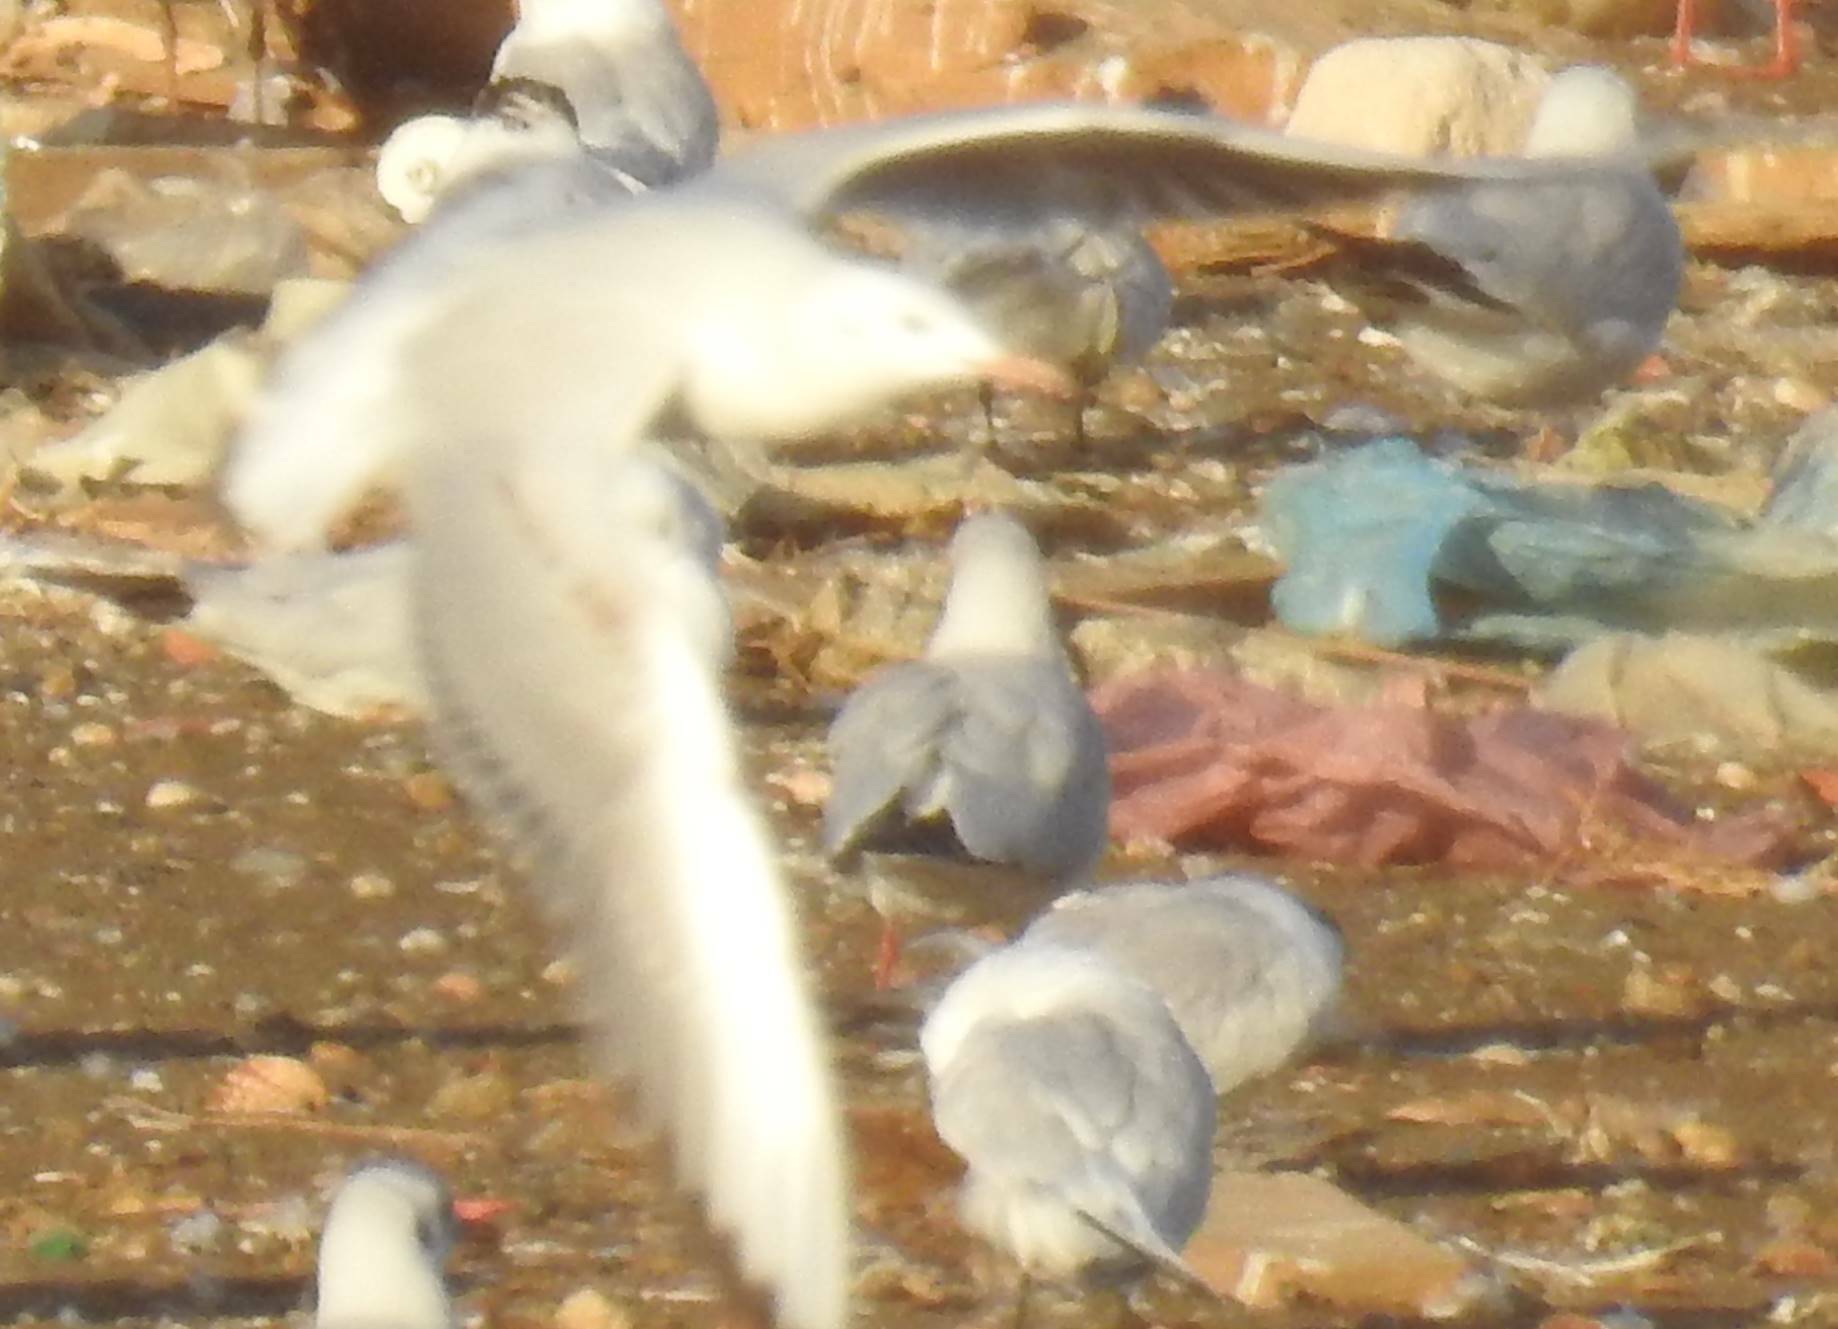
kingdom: Animalia
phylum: Chordata
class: Aves
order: Charadriiformes
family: Laridae
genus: Chroicocephalus
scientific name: Chroicocephalus genei
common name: Slender-billed gull
